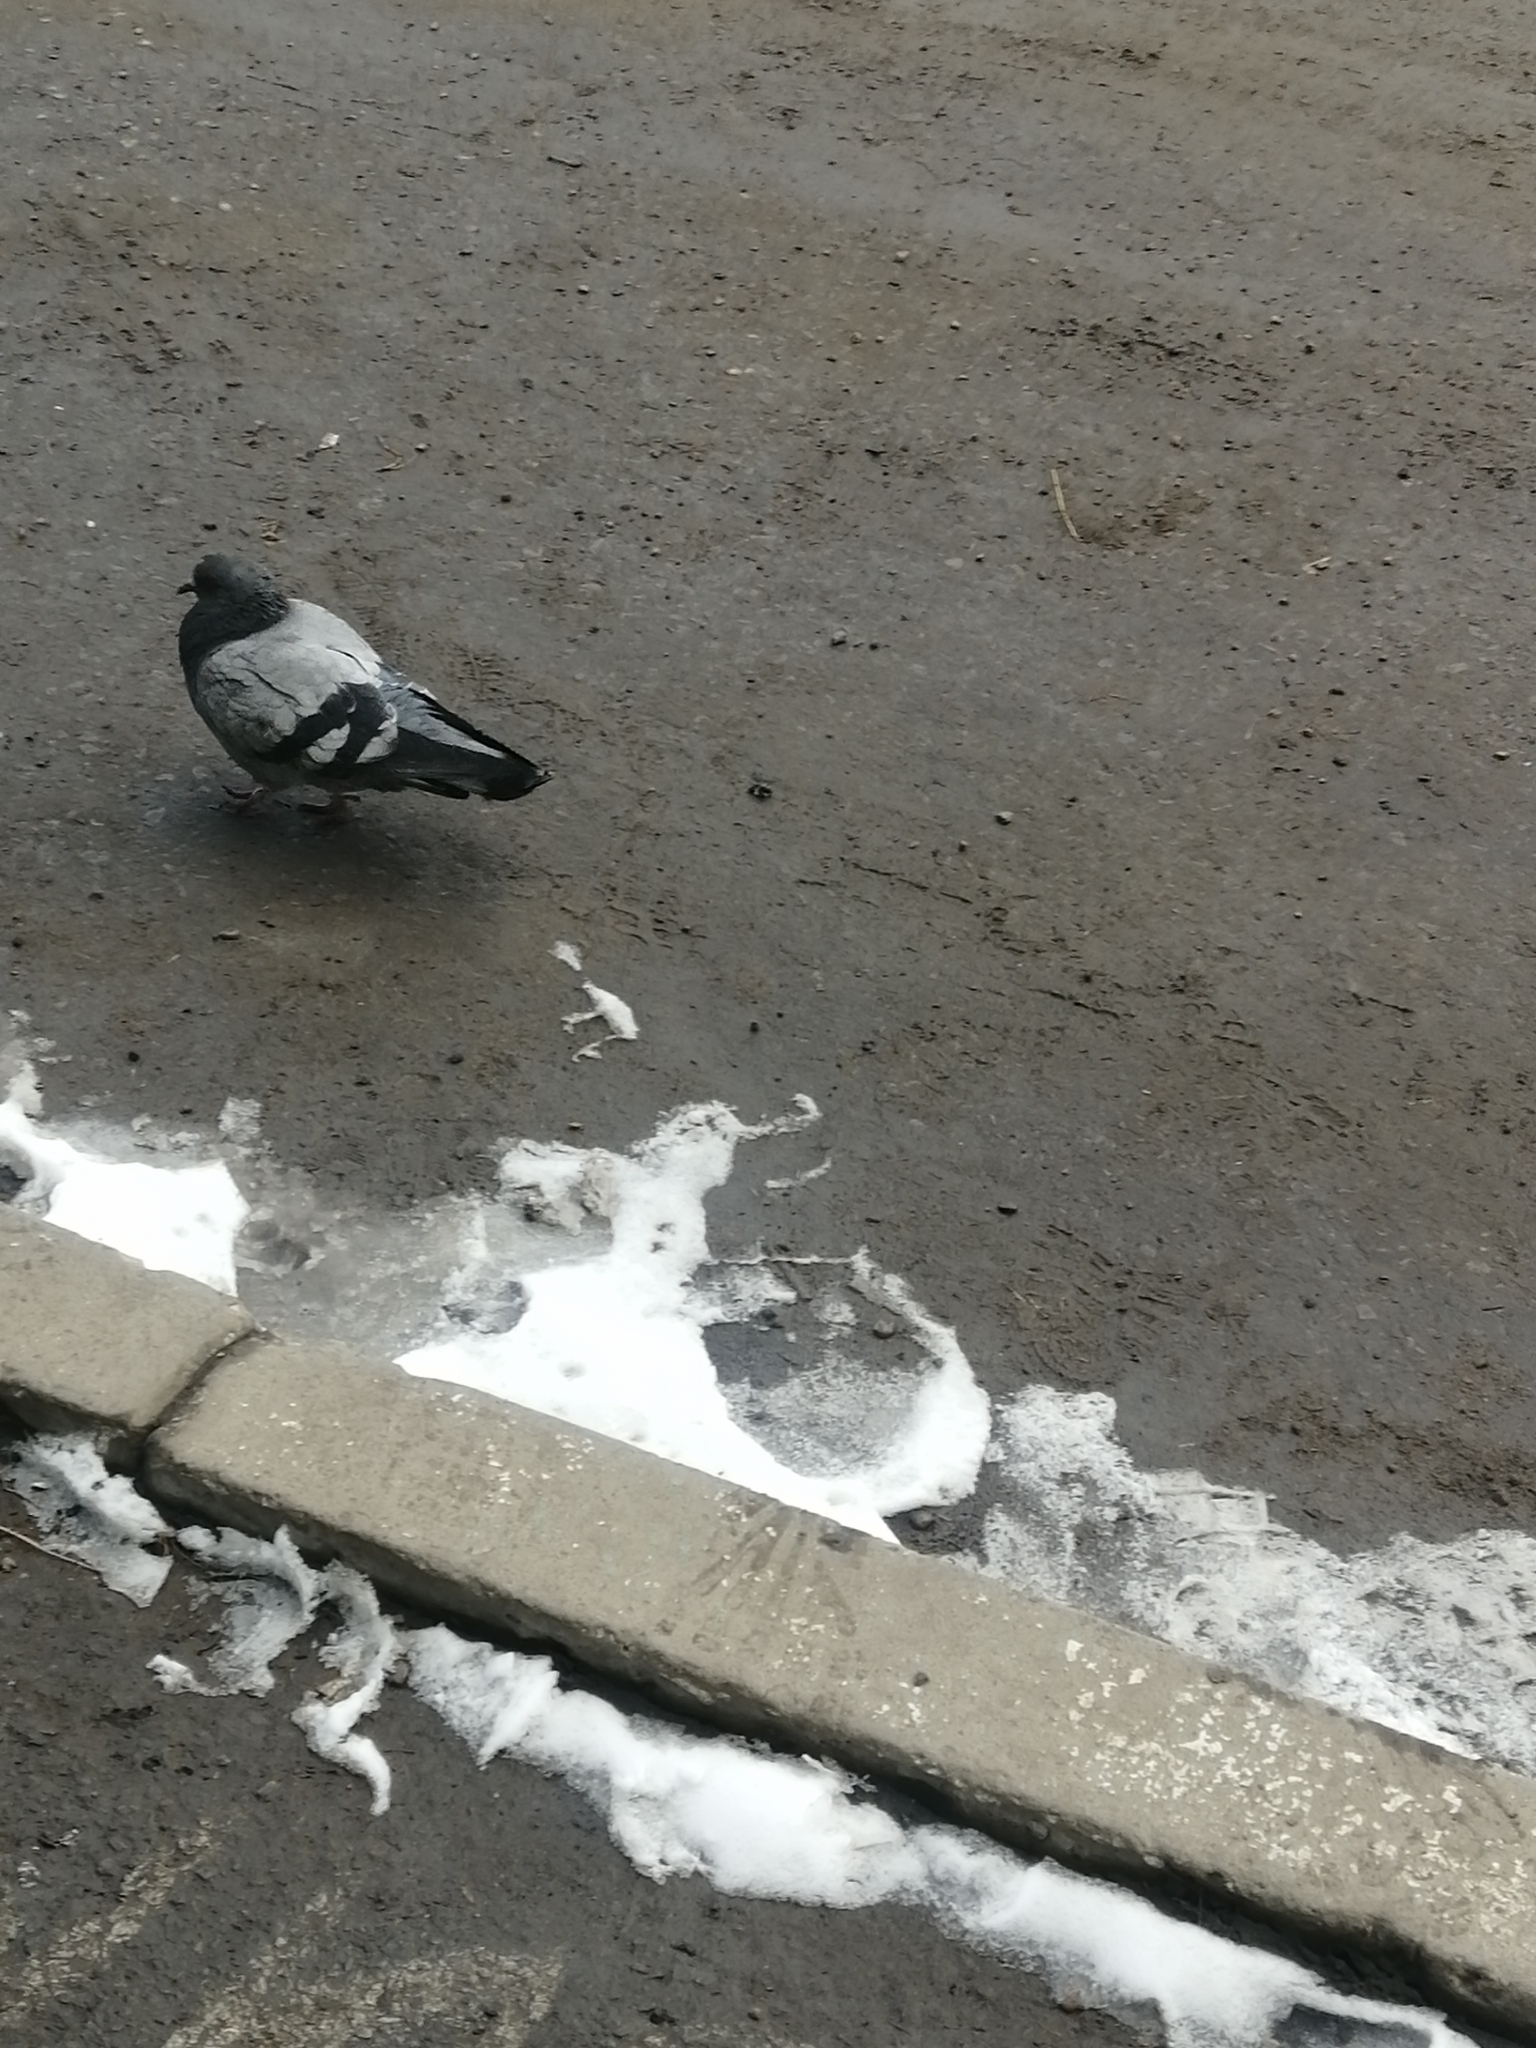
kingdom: Animalia
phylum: Chordata
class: Aves
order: Columbiformes
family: Columbidae
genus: Columba
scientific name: Columba livia
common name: Rock pigeon
